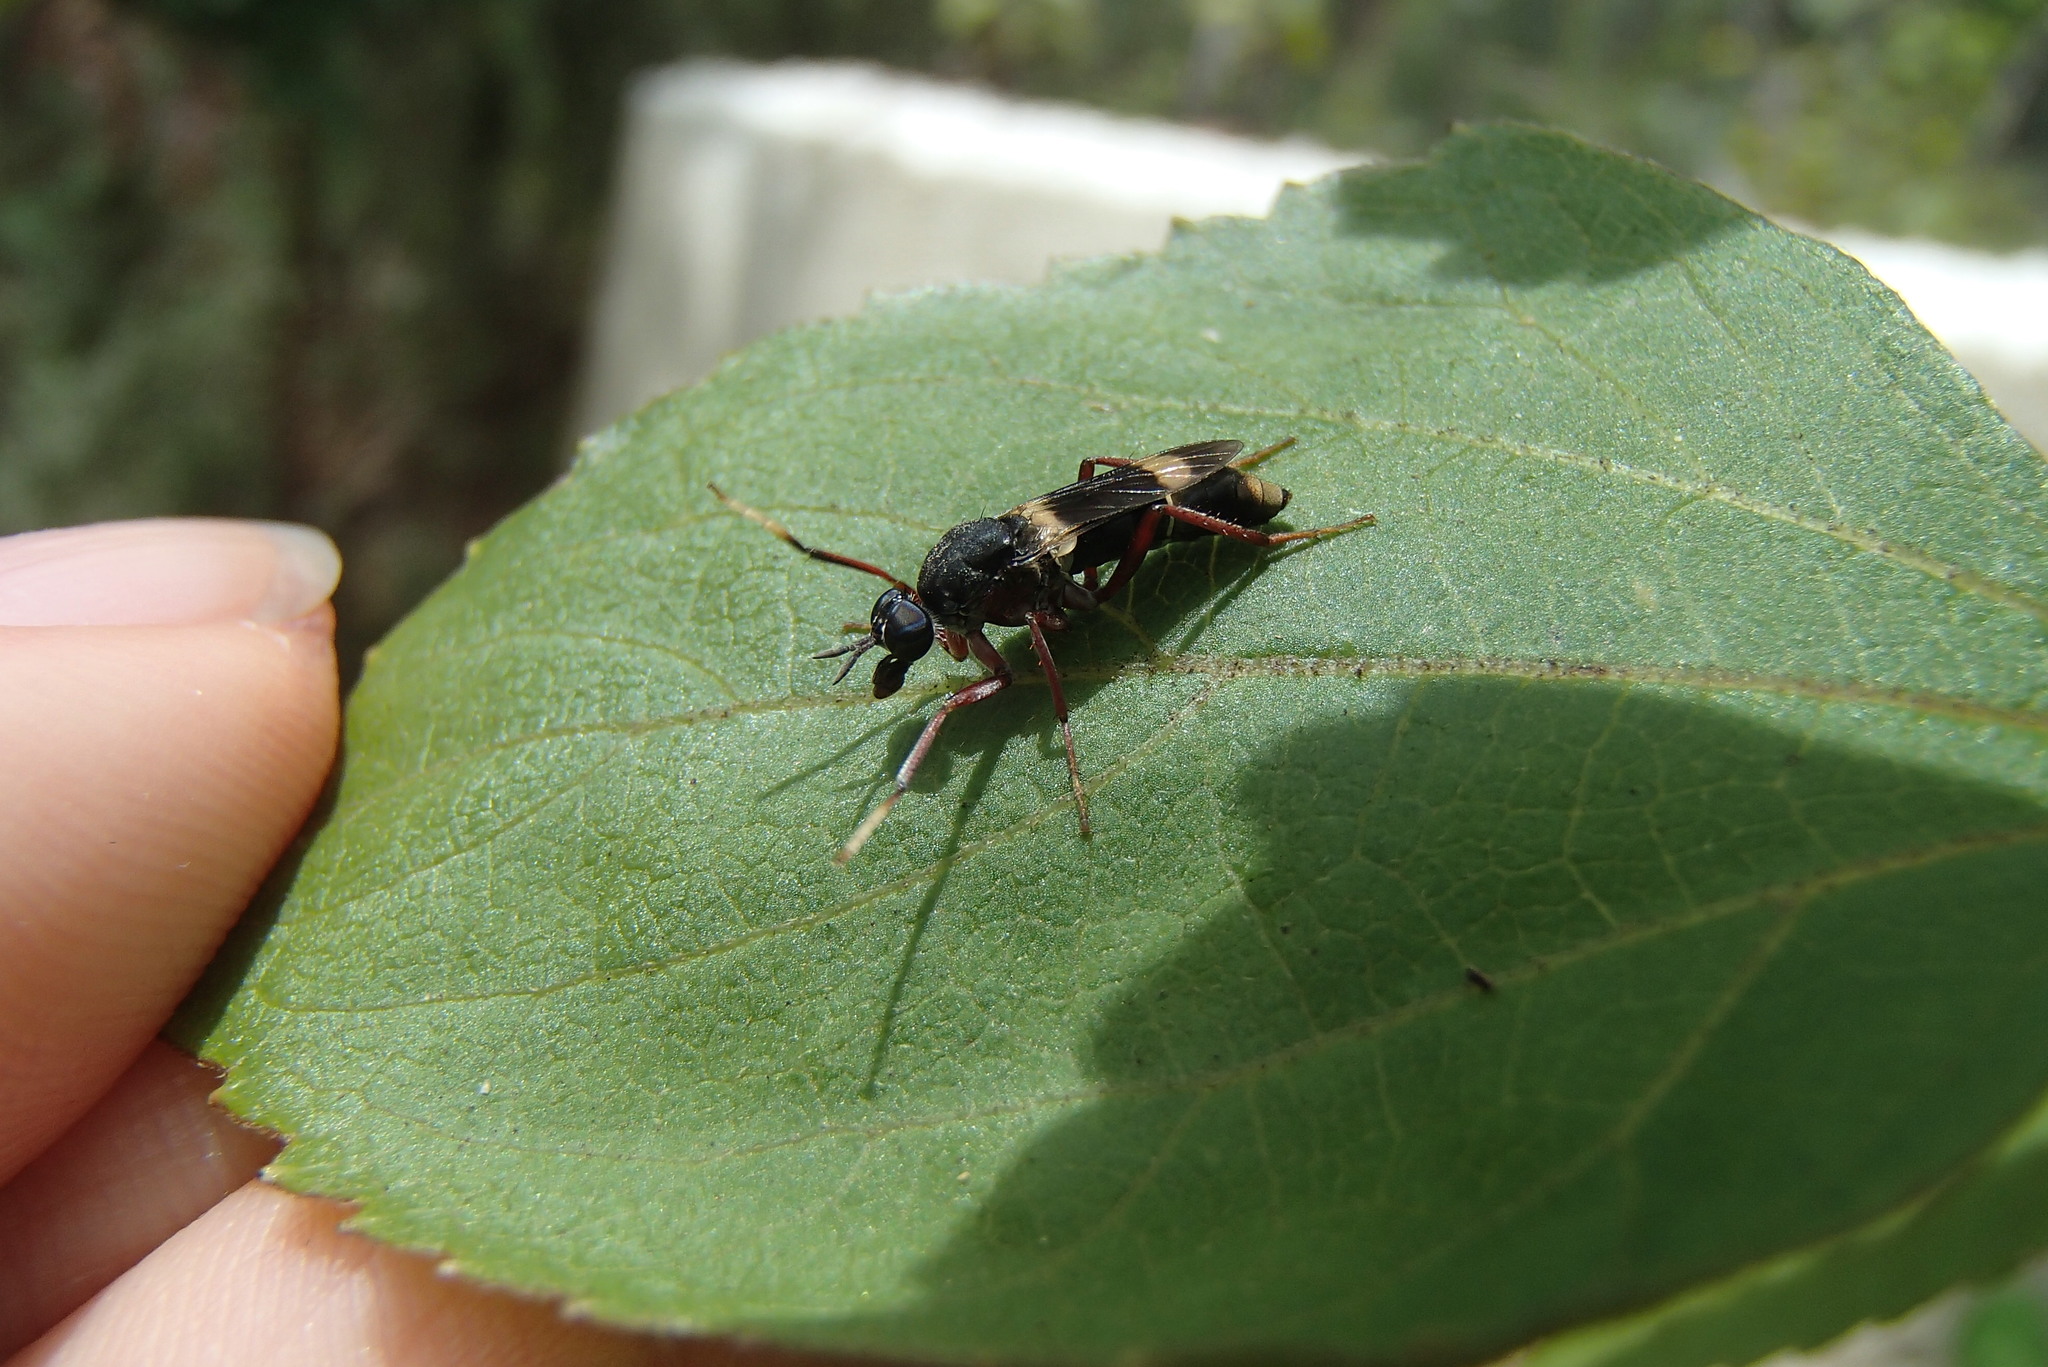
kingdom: Animalia
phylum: Arthropoda
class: Insecta
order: Diptera
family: Therevidae
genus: Pipinnipons
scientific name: Pipinnipons fascipennis
